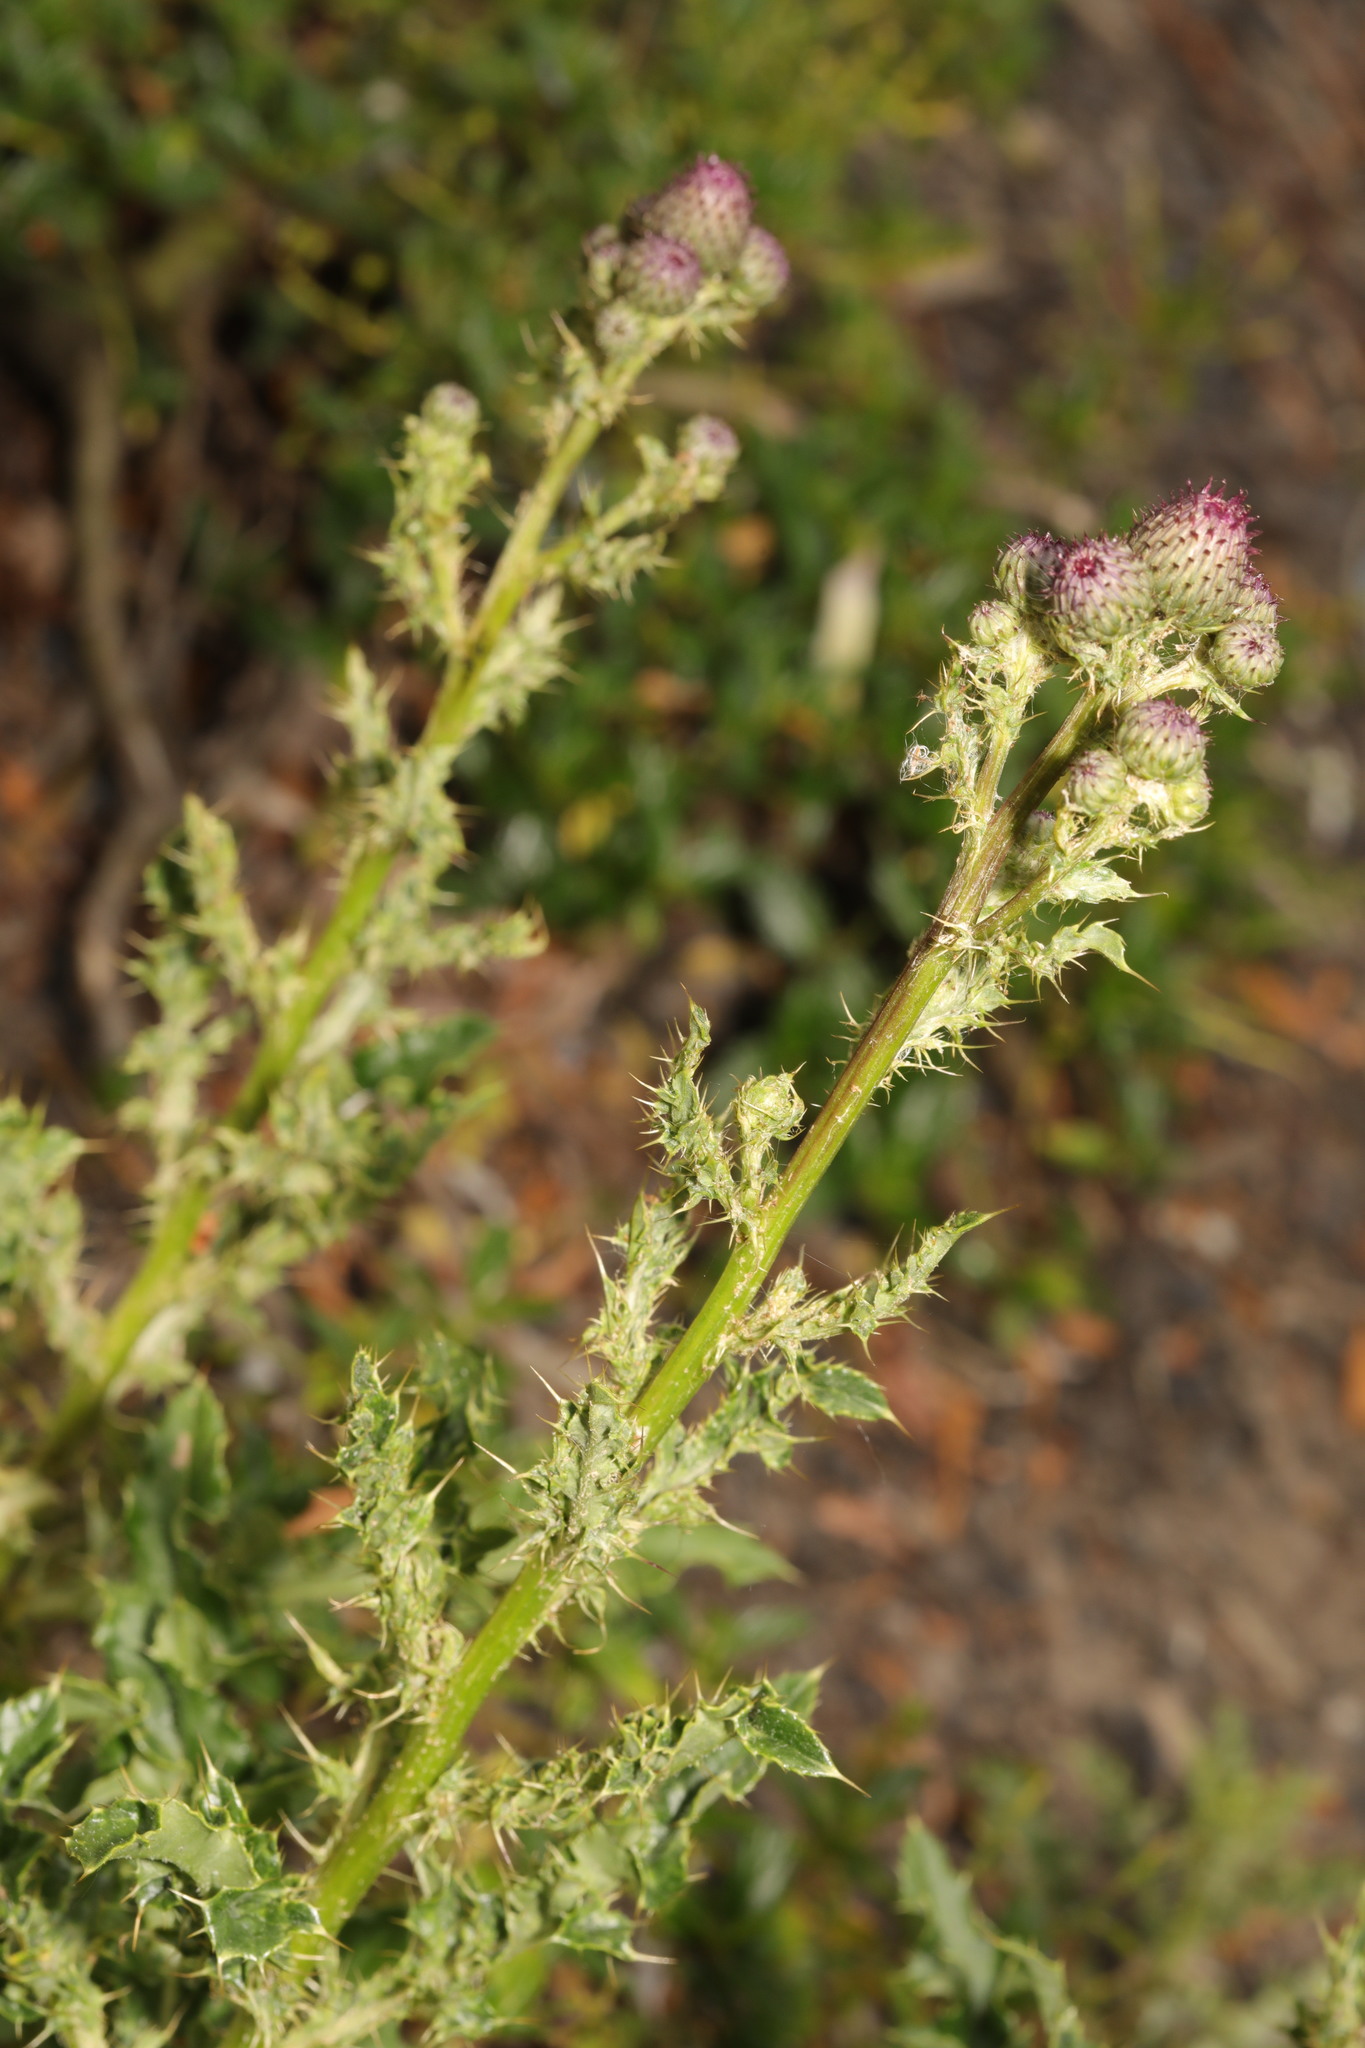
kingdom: Plantae
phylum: Tracheophyta
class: Magnoliopsida
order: Asterales
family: Asteraceae
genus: Cirsium
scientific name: Cirsium arvense
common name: Creeping thistle
